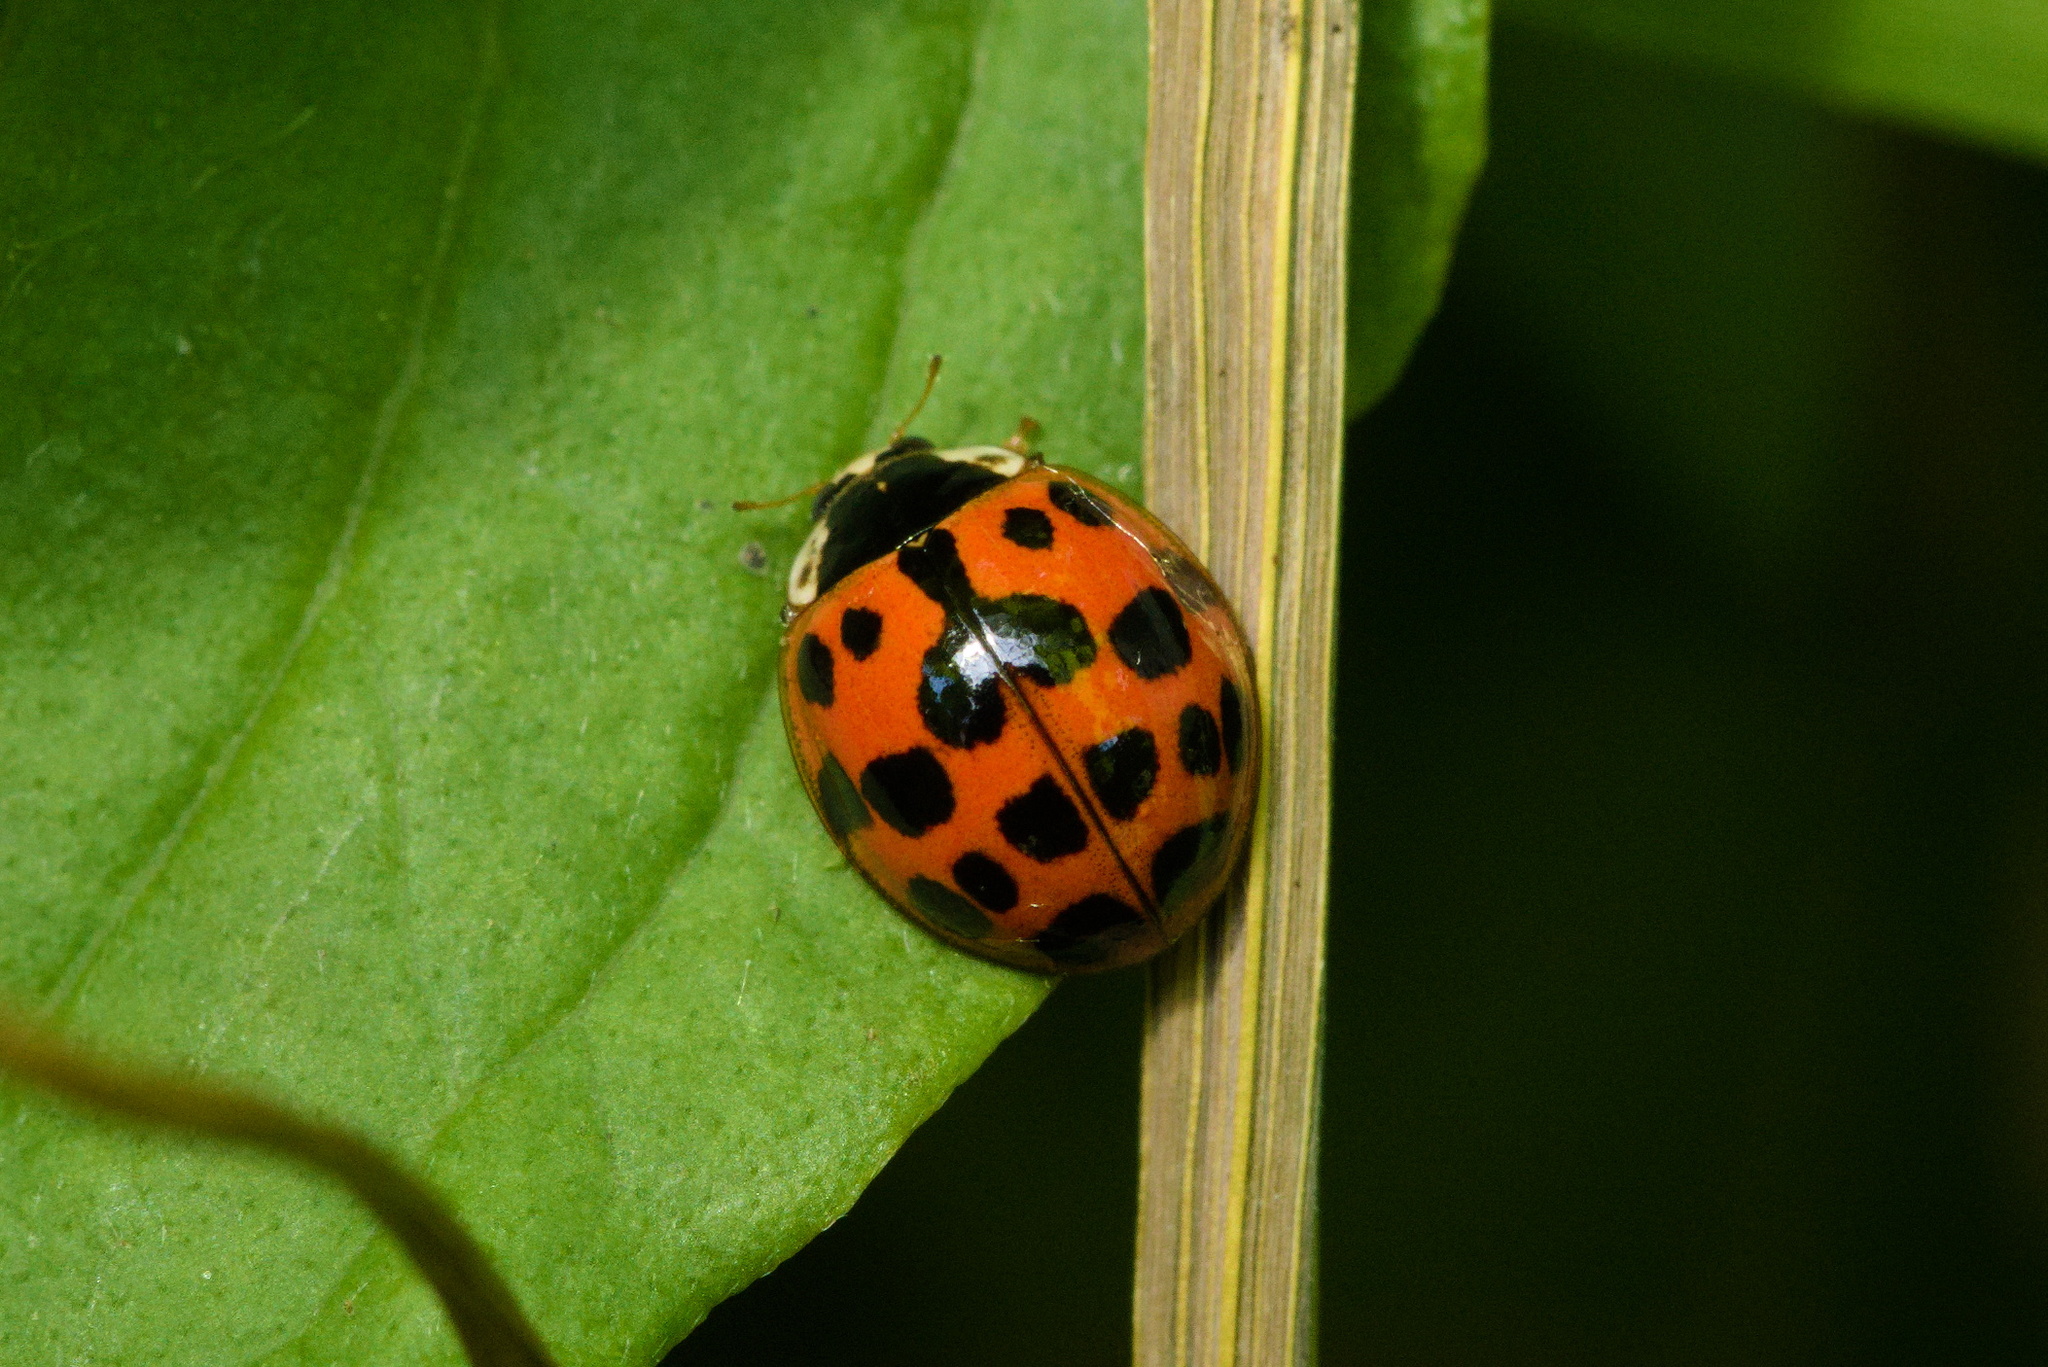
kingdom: Animalia
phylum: Arthropoda
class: Insecta
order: Coleoptera
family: Coccinellidae
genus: Harmonia
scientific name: Harmonia axyridis
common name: Harlequin ladybird
